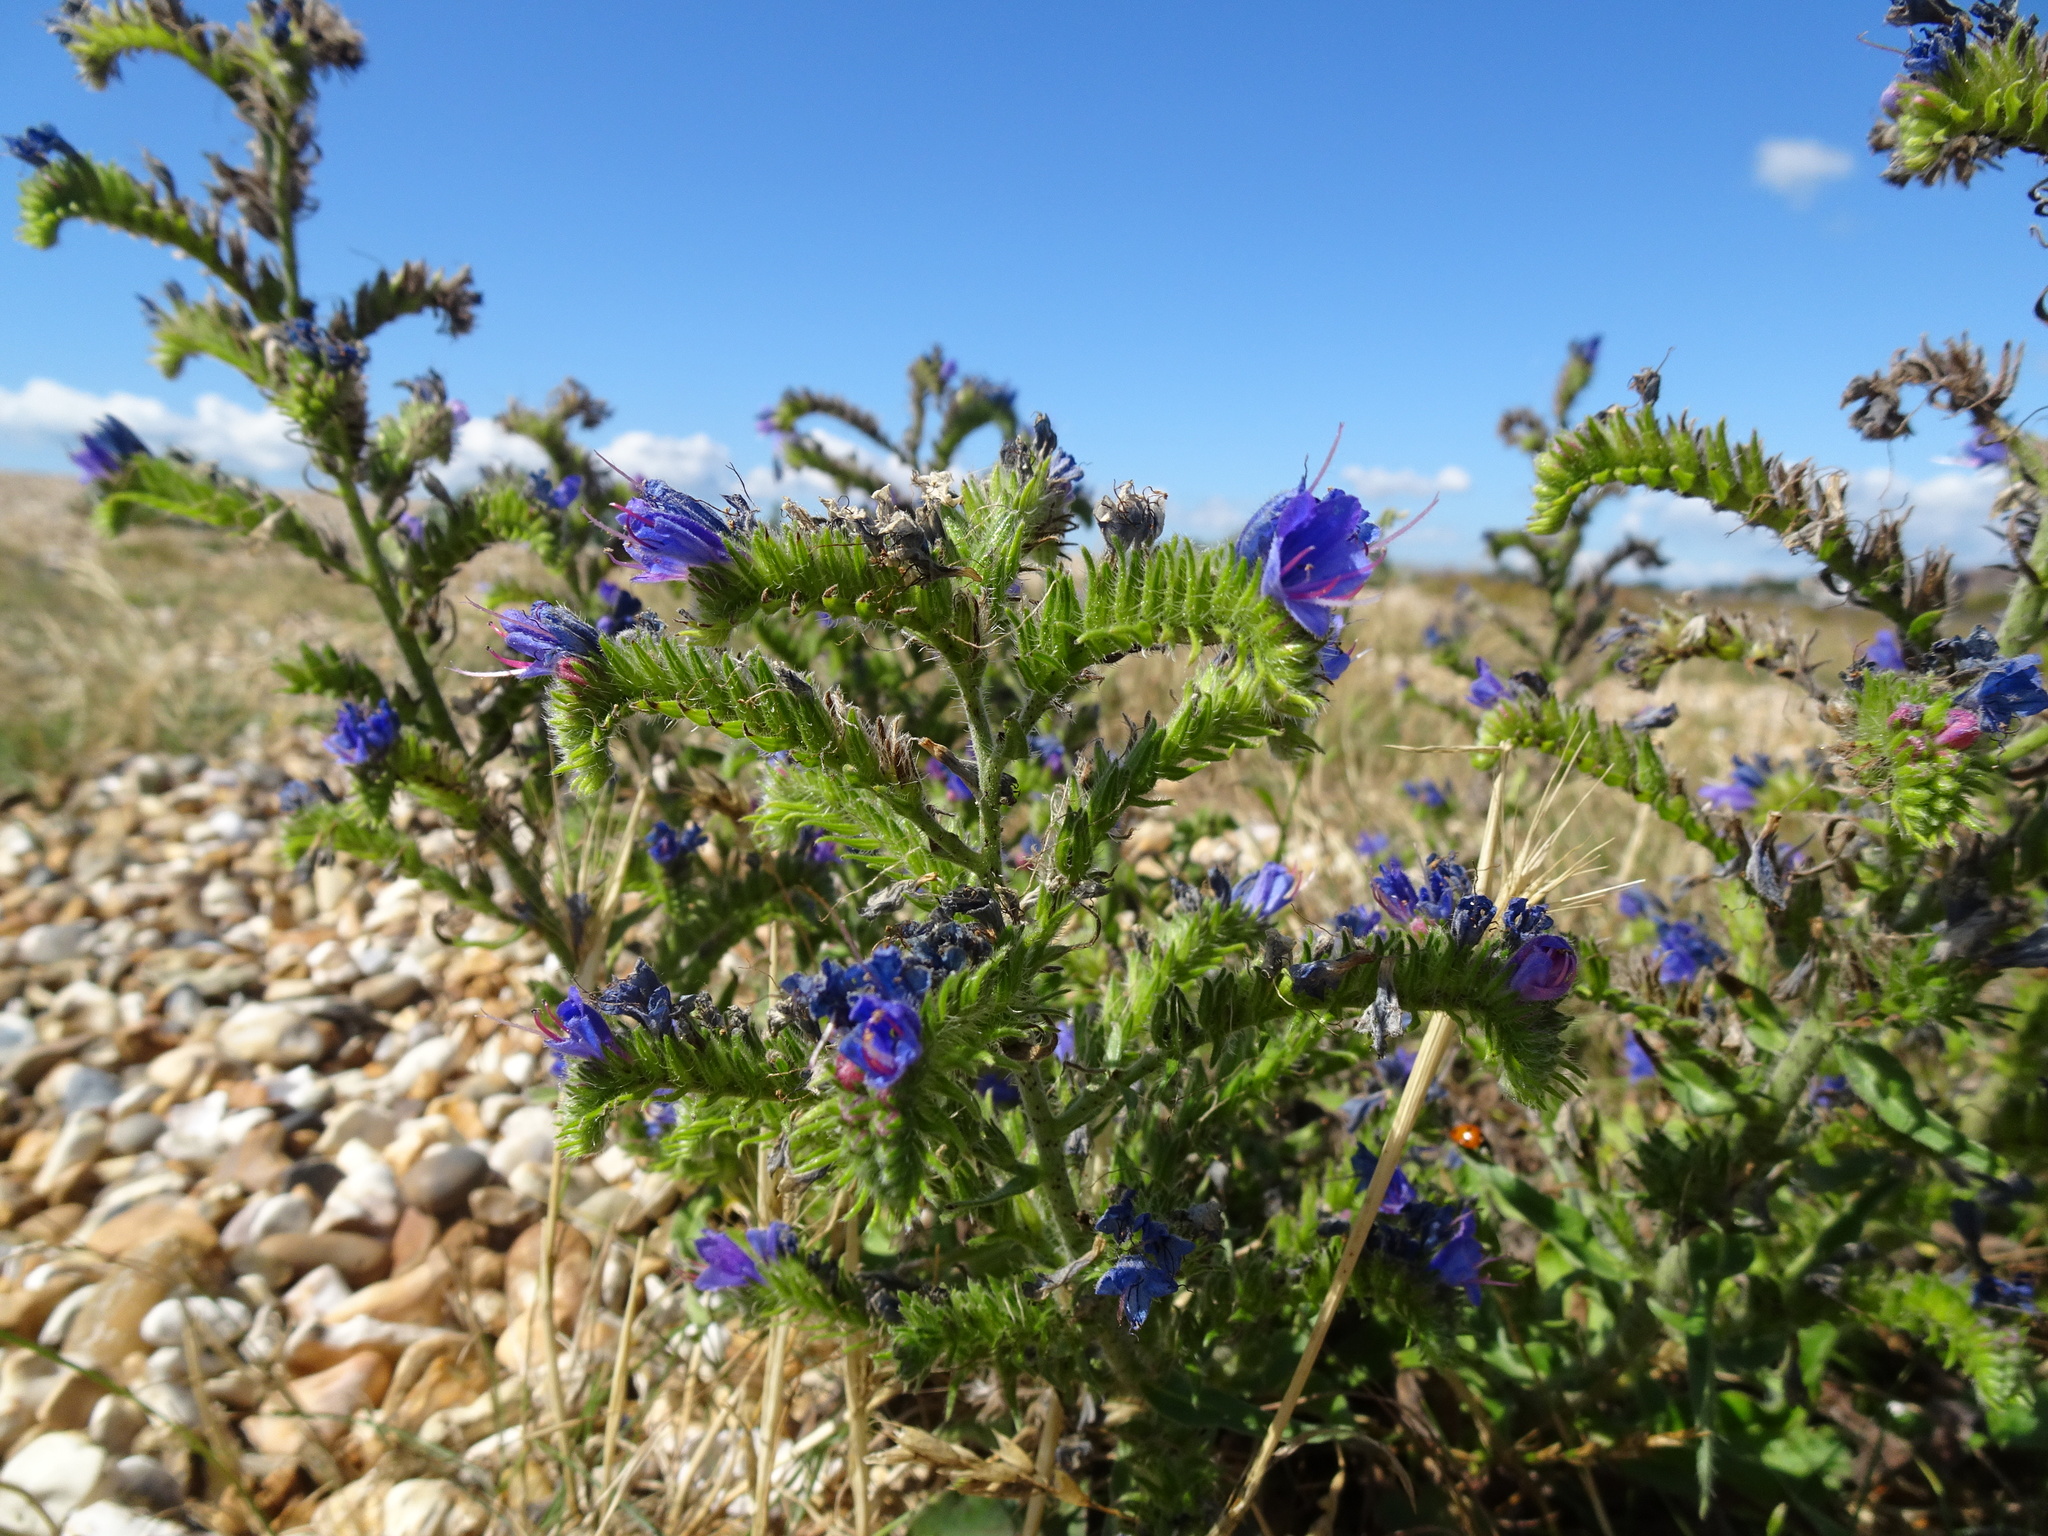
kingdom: Plantae
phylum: Tracheophyta
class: Magnoliopsida
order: Boraginales
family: Boraginaceae
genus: Echium
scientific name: Echium vulgare
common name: Common viper's bugloss
